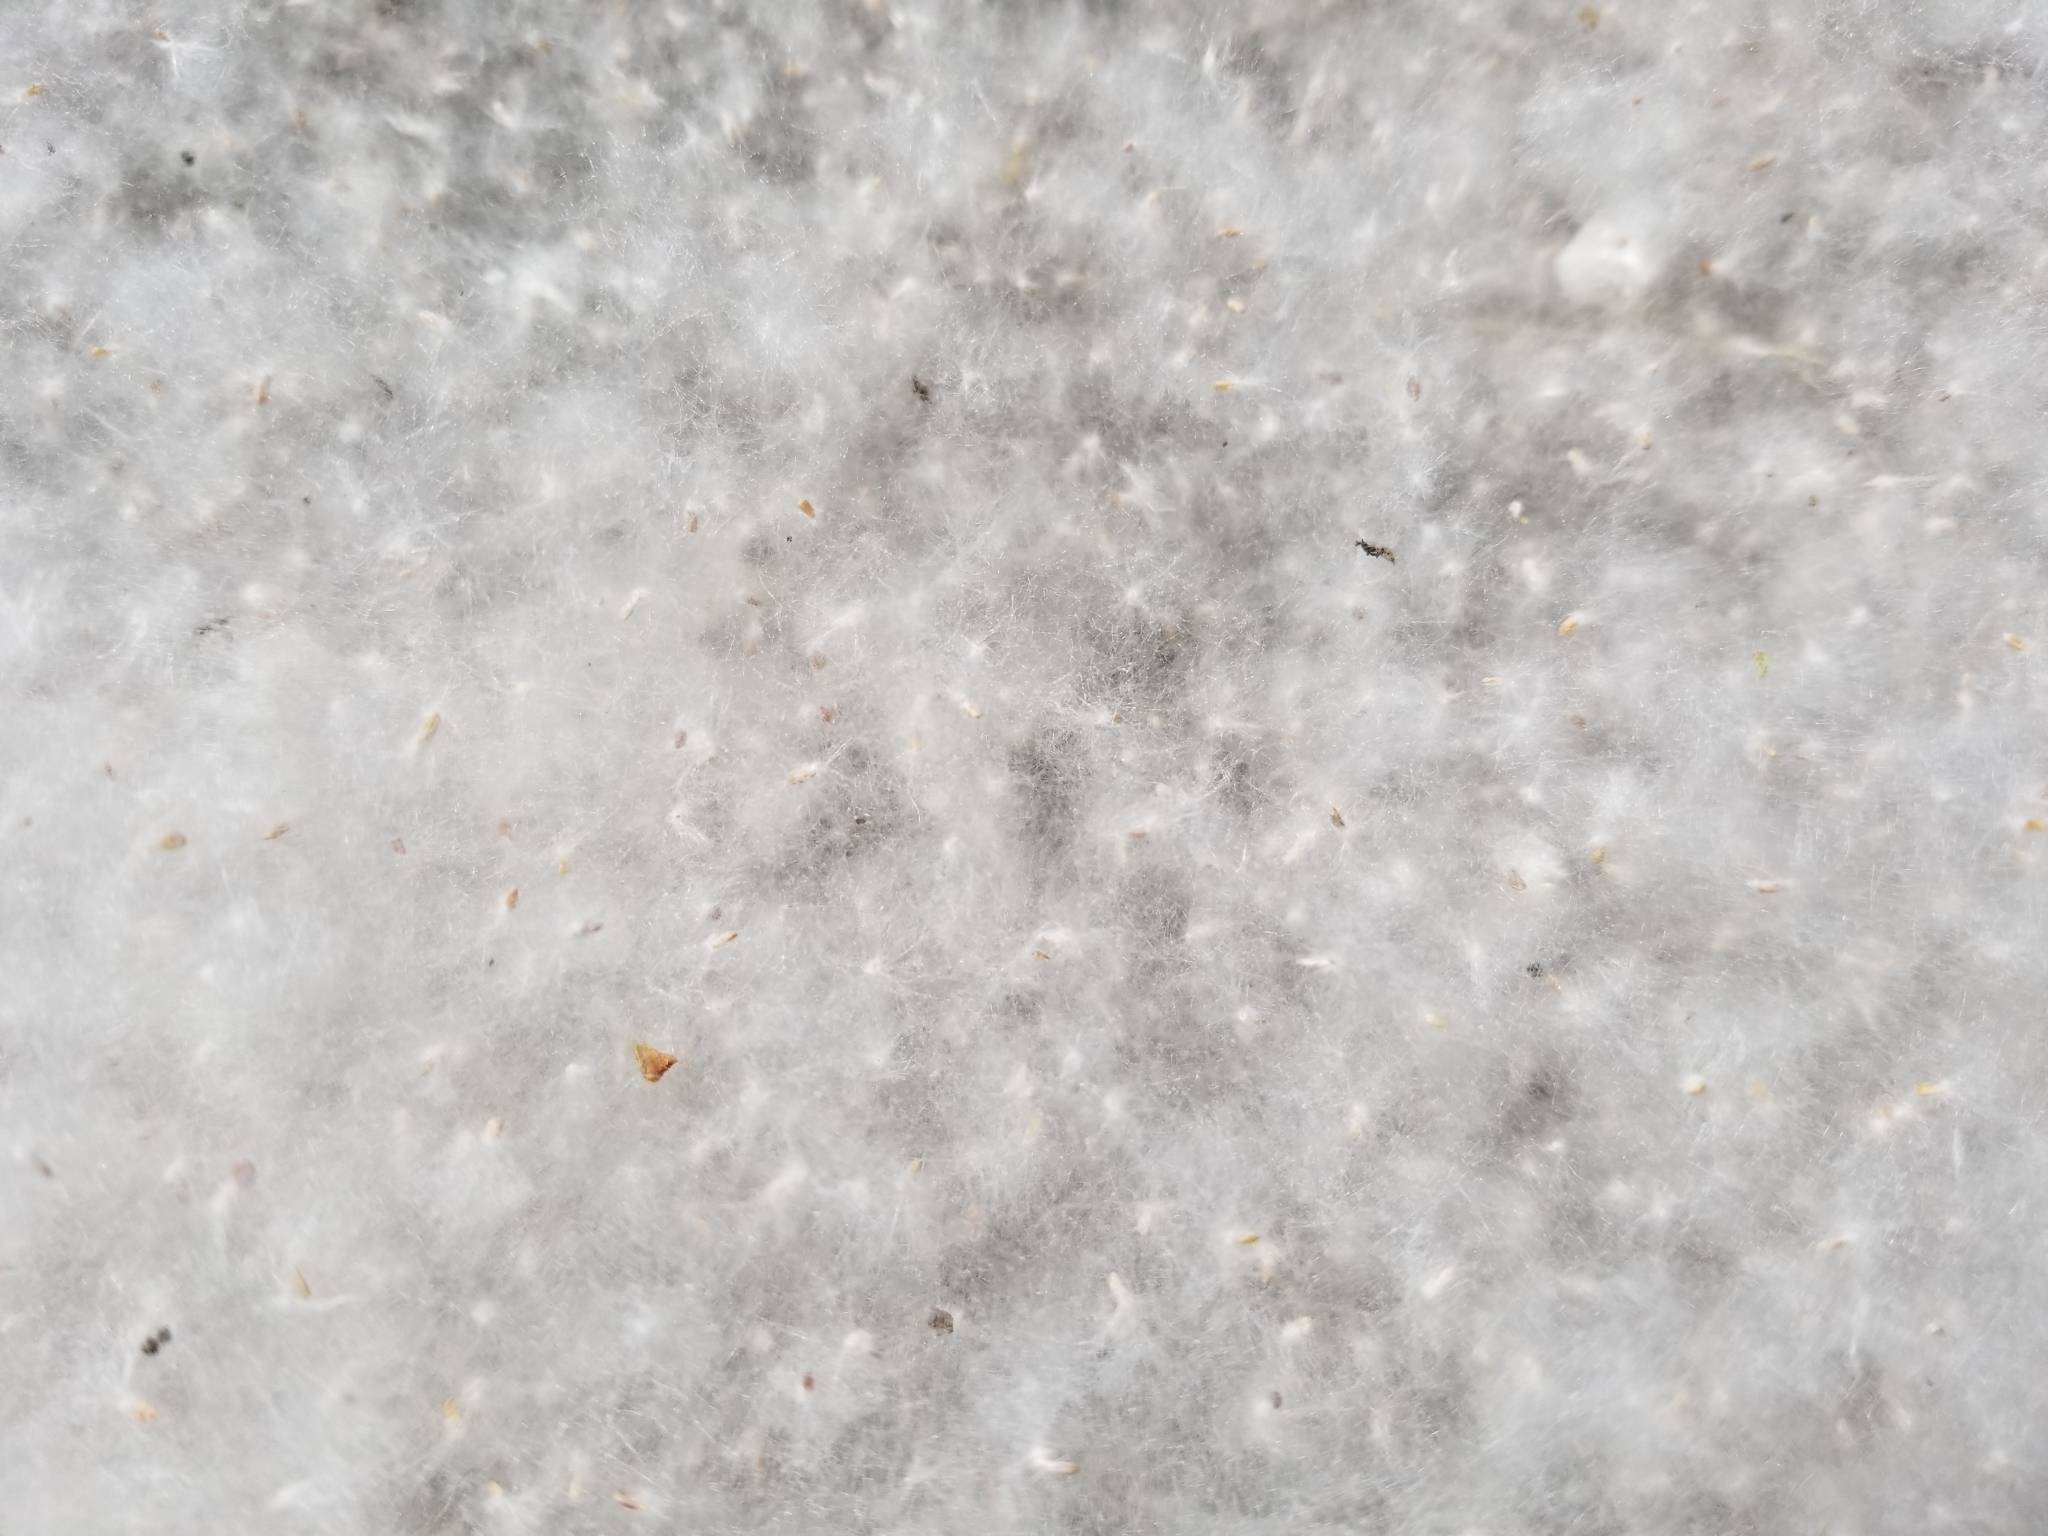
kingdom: Plantae
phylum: Tracheophyta
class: Magnoliopsida
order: Malpighiales
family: Salicaceae
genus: Populus
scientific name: Populus trichocarpa
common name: Black cottonwood
